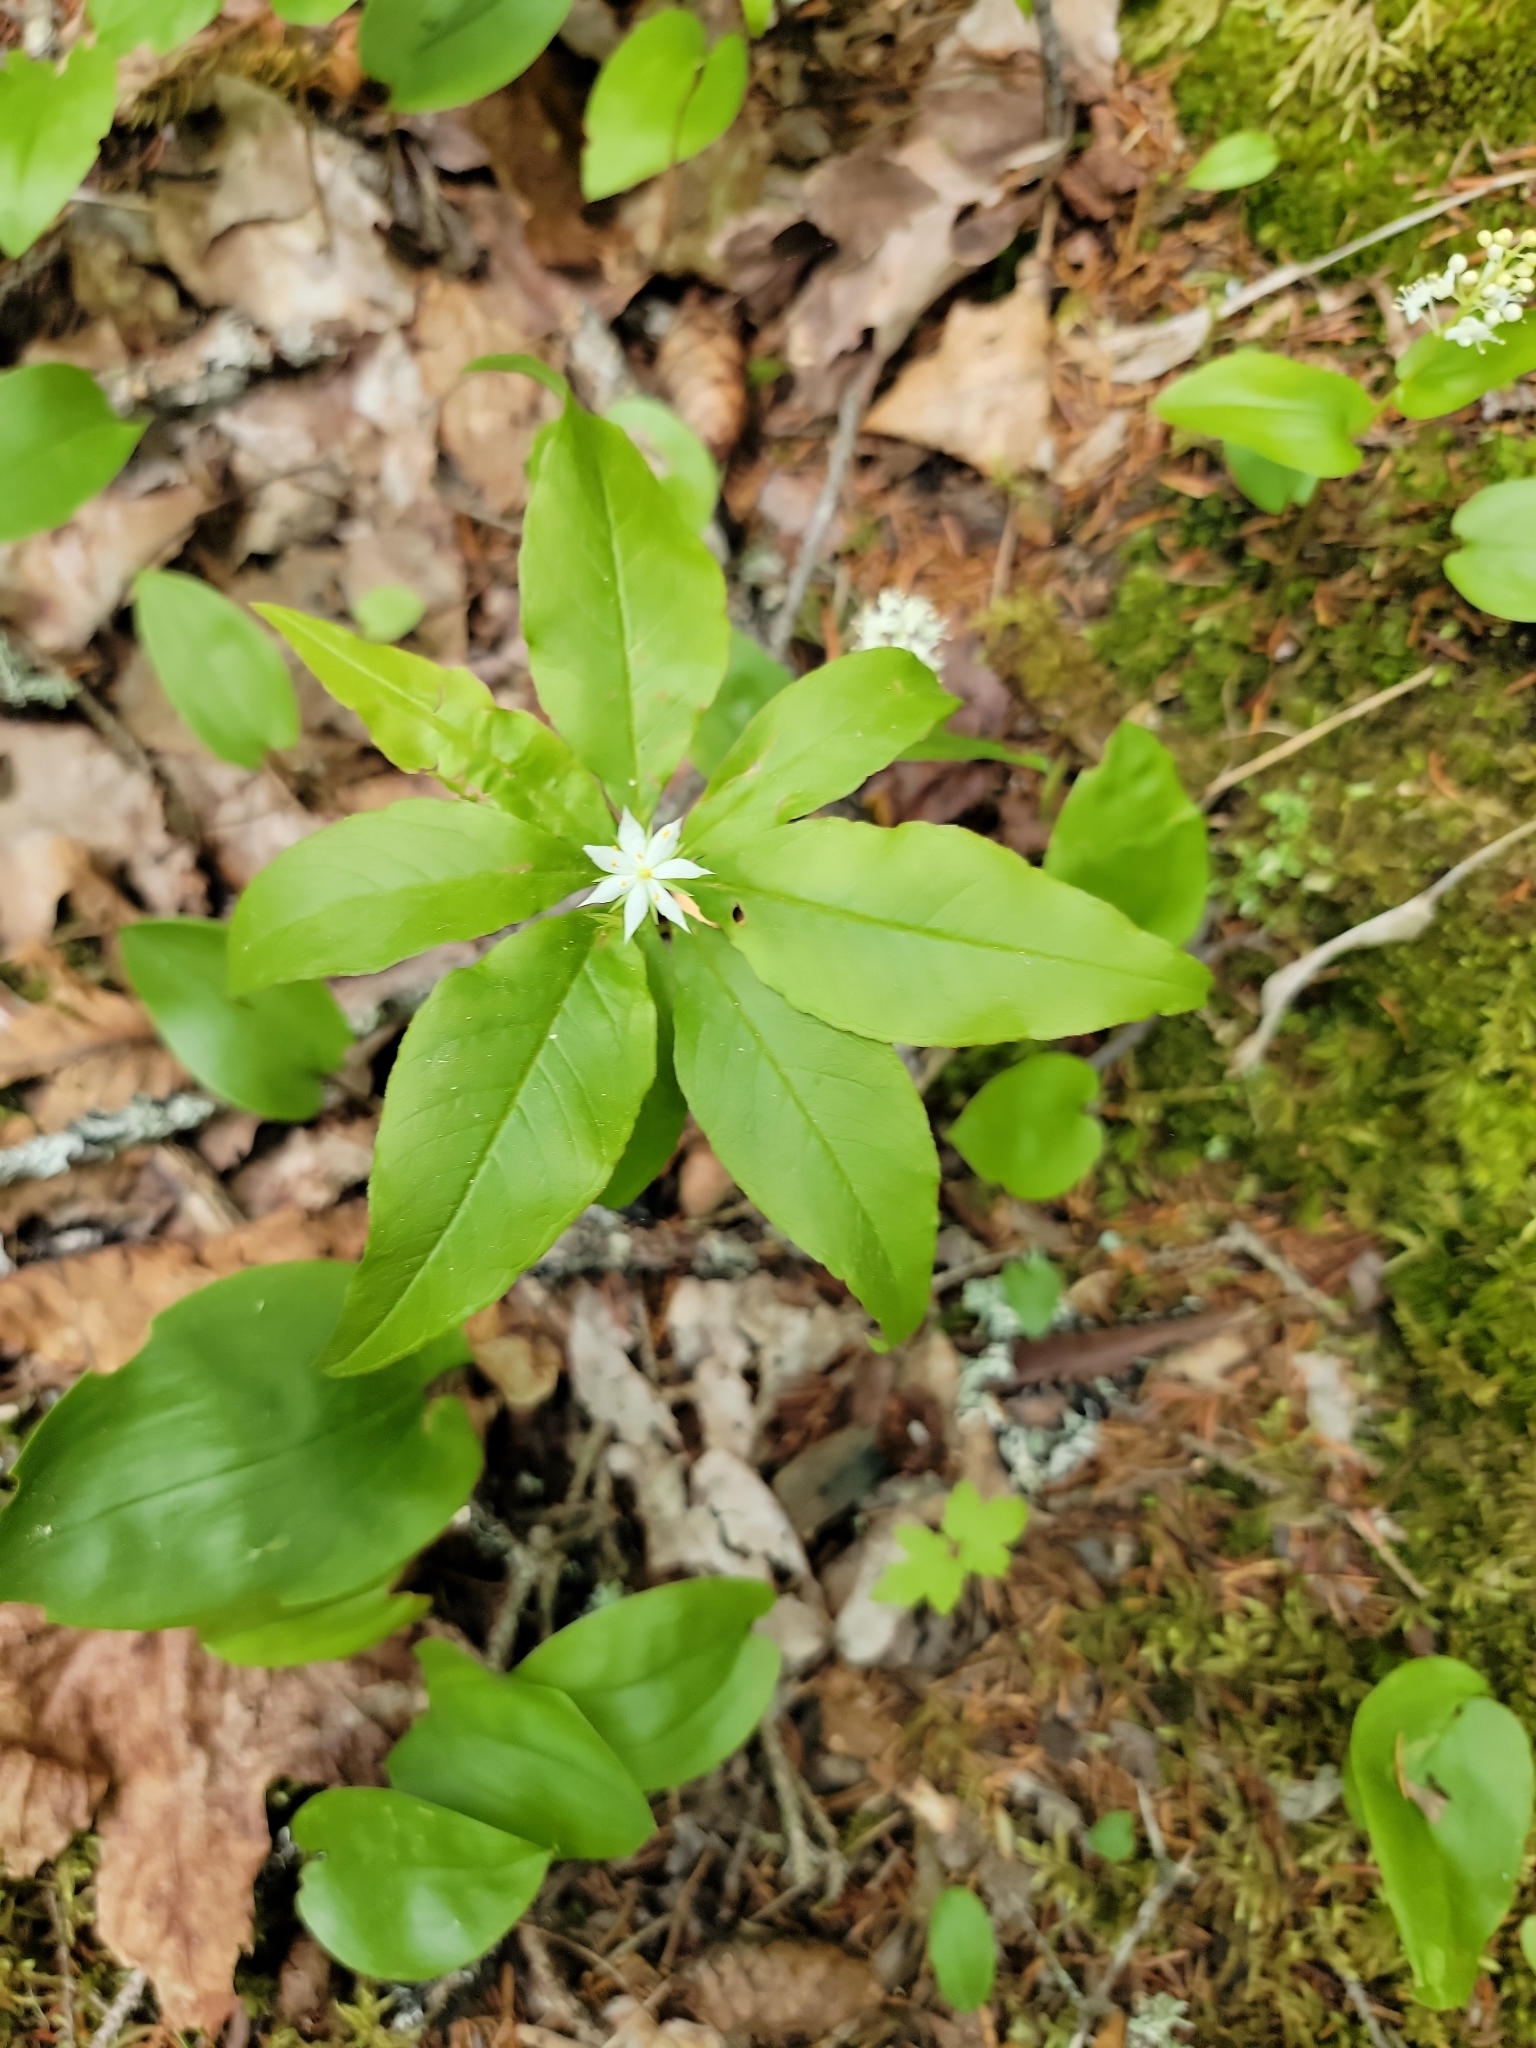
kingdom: Plantae
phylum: Tracheophyta
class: Magnoliopsida
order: Ericales
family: Primulaceae
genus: Lysimachia
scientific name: Lysimachia borealis
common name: American starflower
